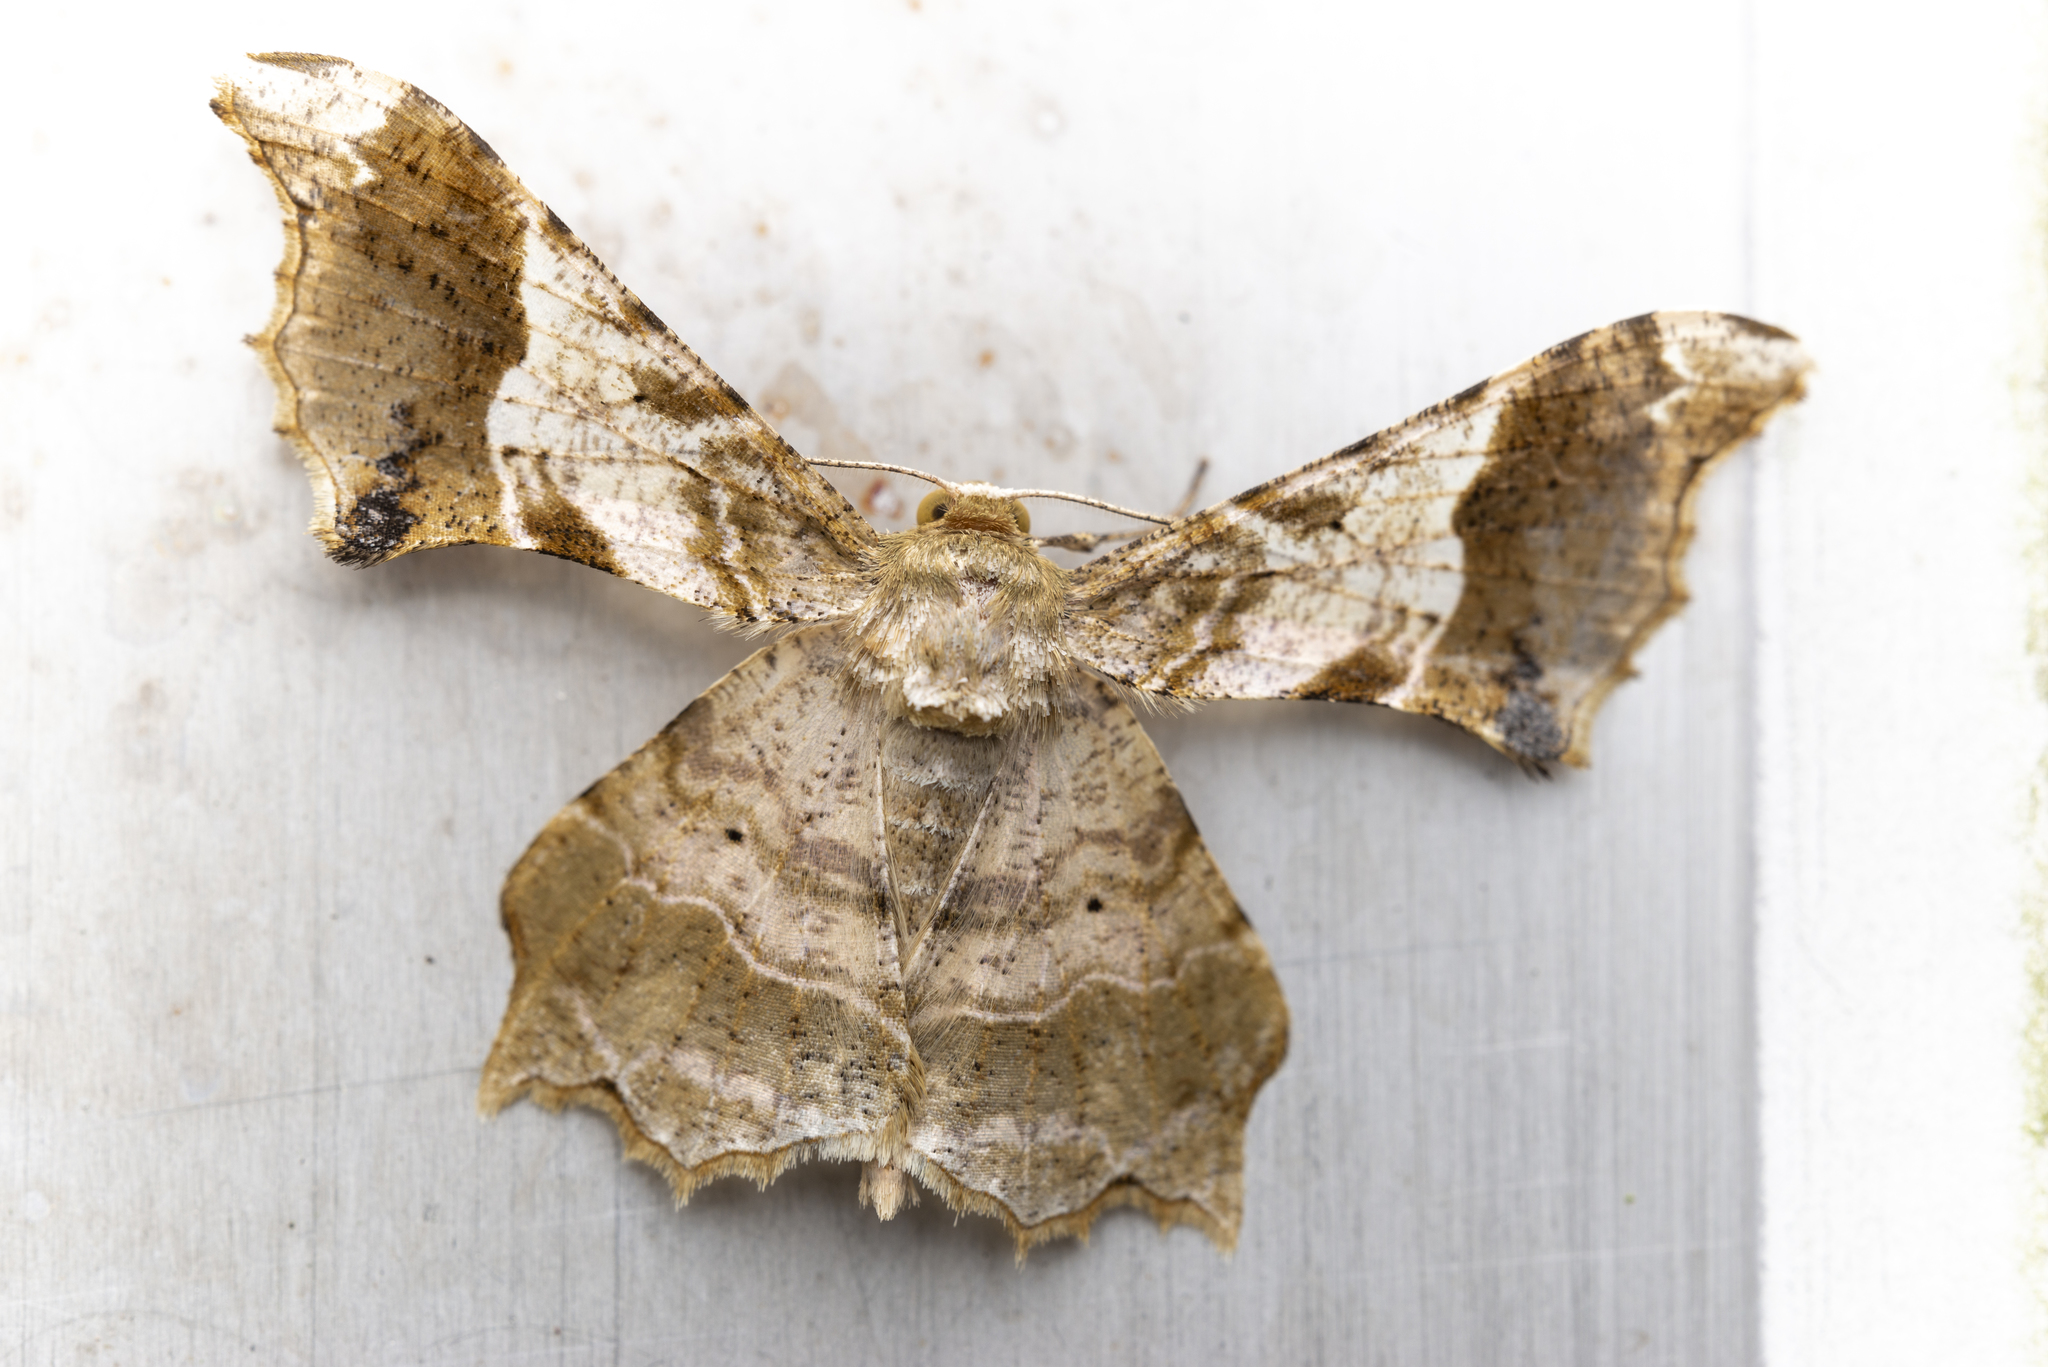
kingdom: Animalia
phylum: Arthropoda
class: Insecta
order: Lepidoptera
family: Geometridae
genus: Krananda
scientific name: Krananda oliveomarginata
